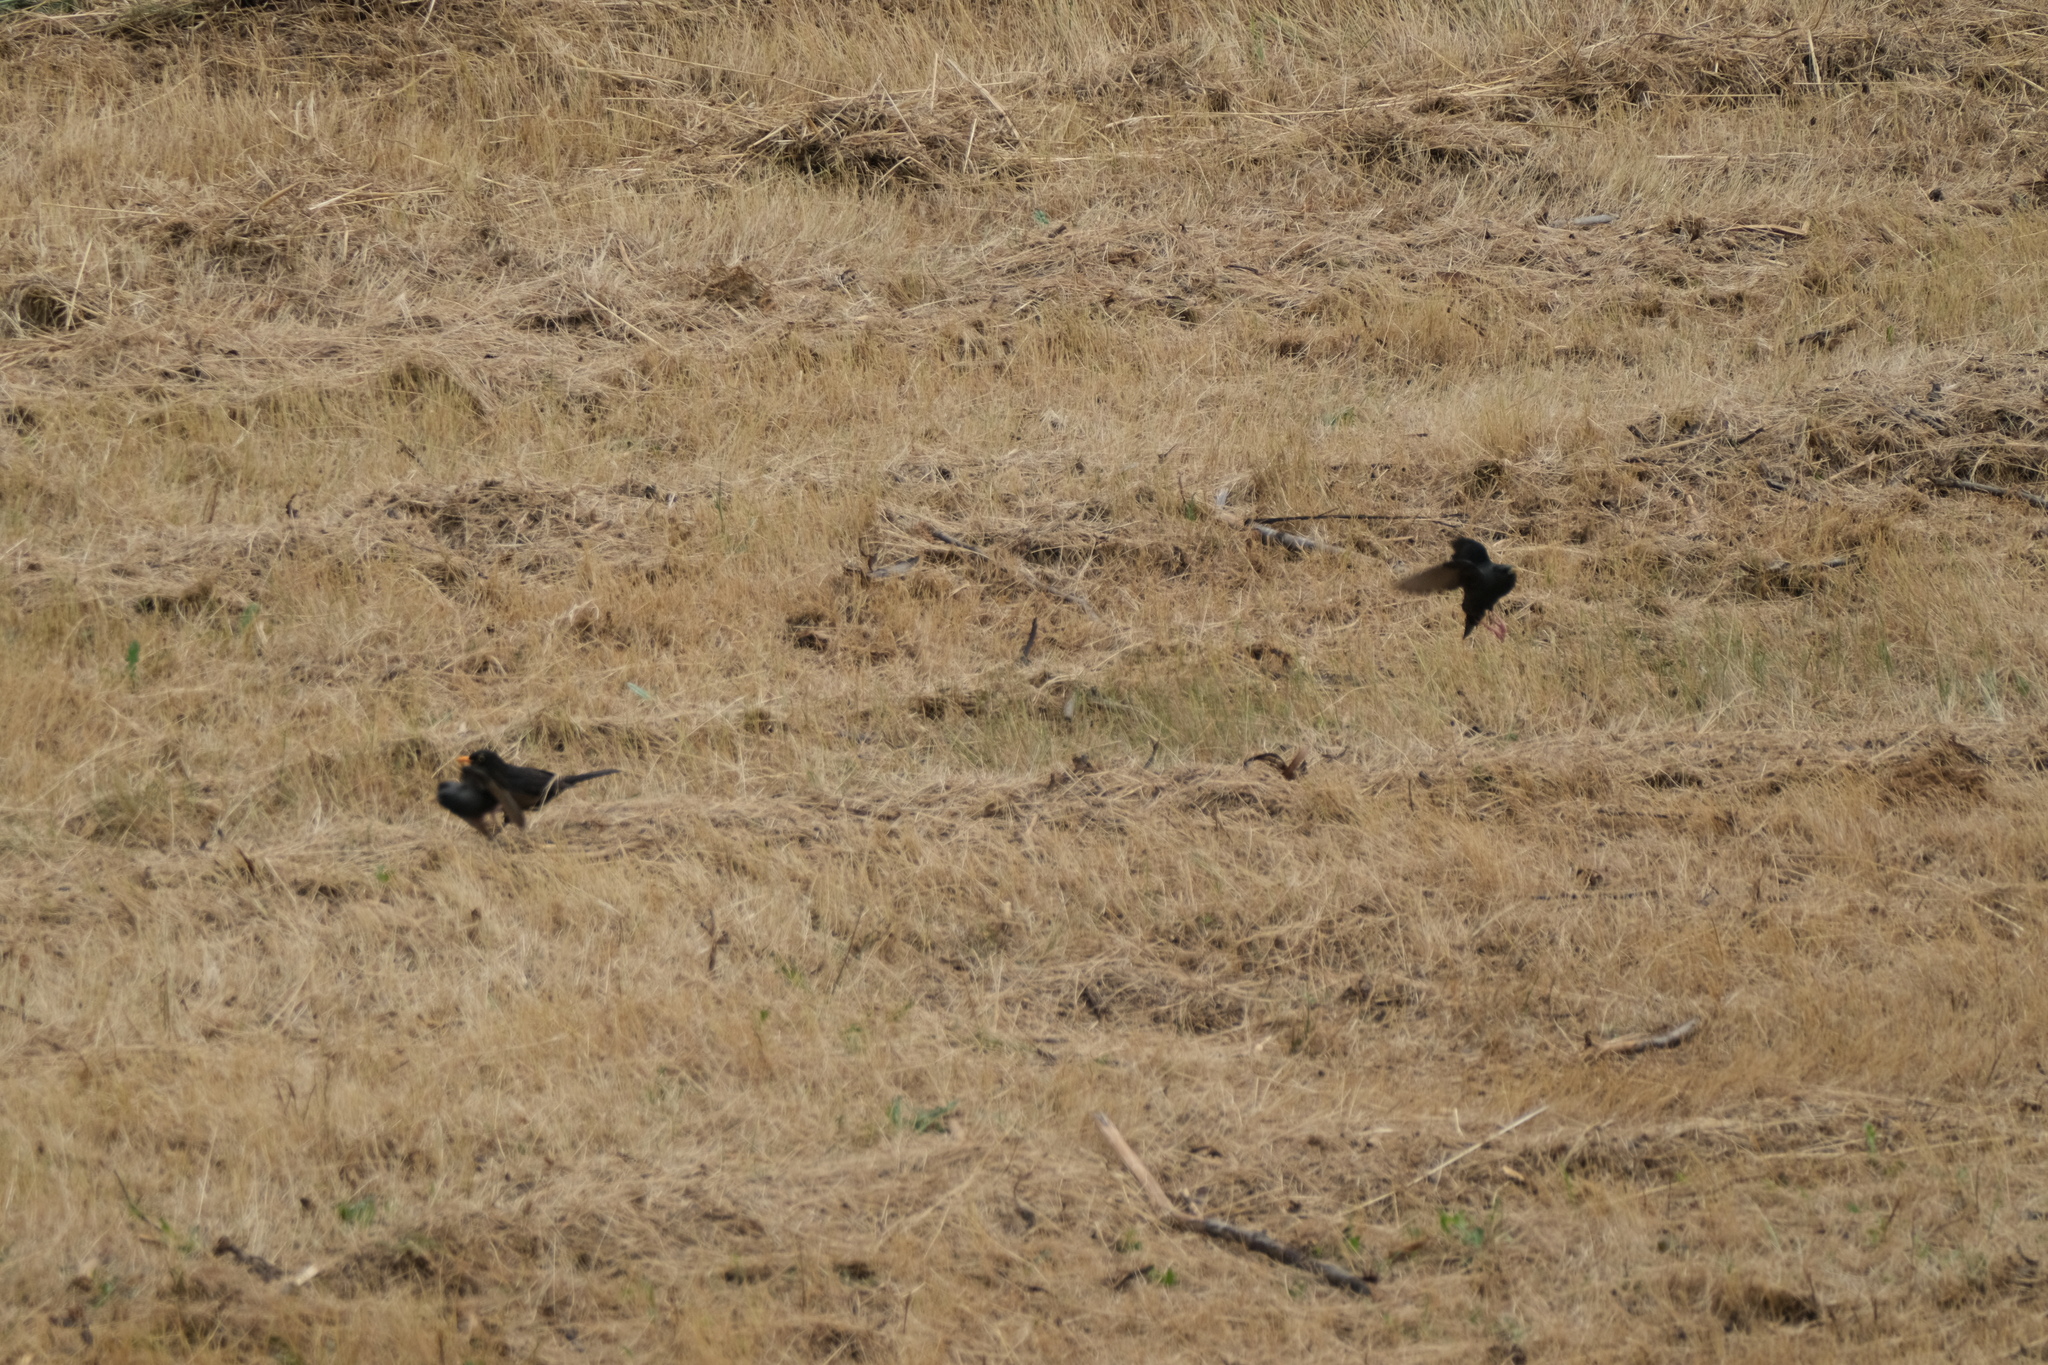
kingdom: Animalia
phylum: Chordata
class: Aves
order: Passeriformes
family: Turdidae
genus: Turdus
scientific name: Turdus merula
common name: Common blackbird
